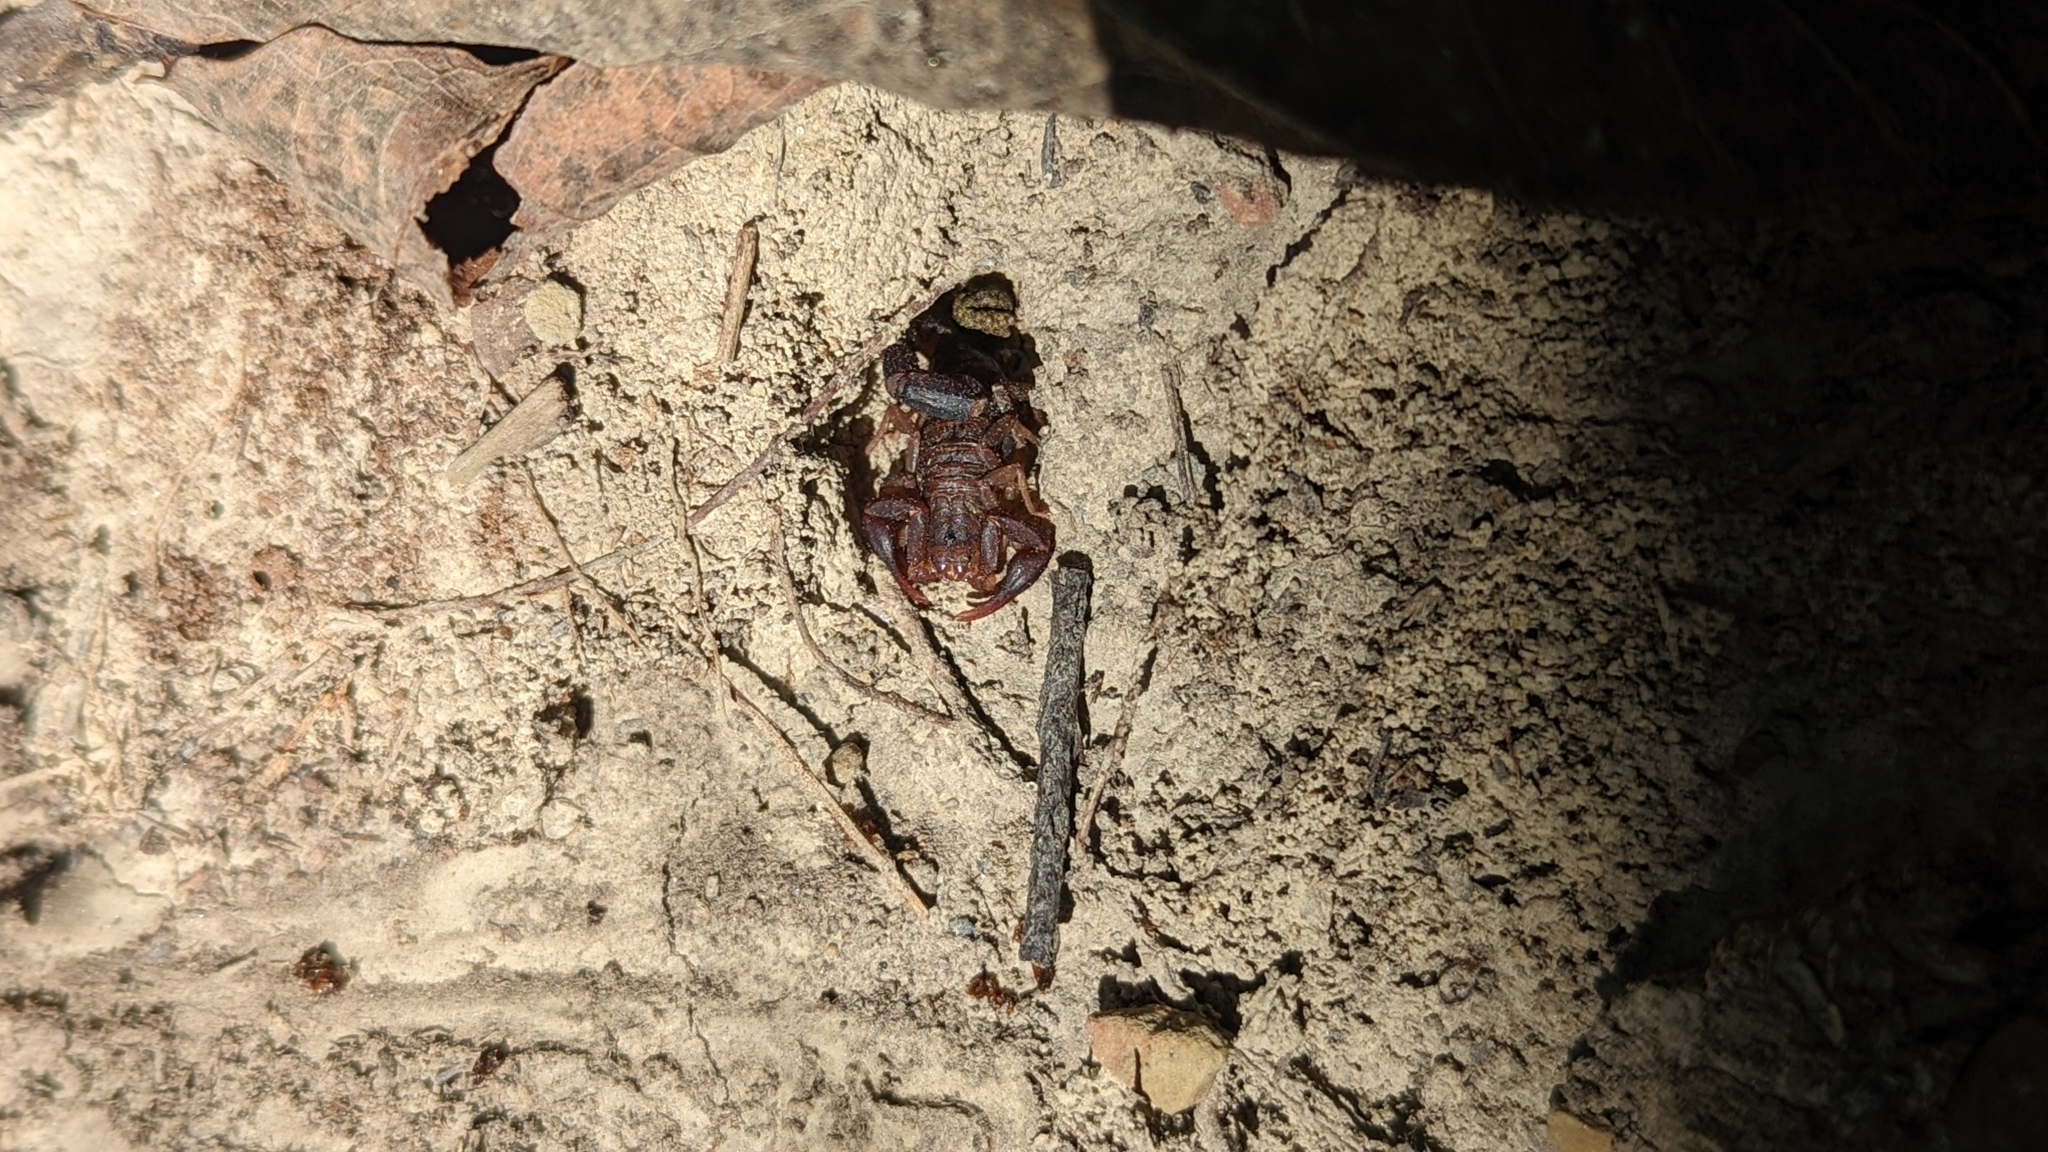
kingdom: Animalia
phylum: Arthropoda
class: Arachnida
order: Scorpiones
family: Vaejovidae
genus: Vaejovis
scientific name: Vaejovis carolinianus
